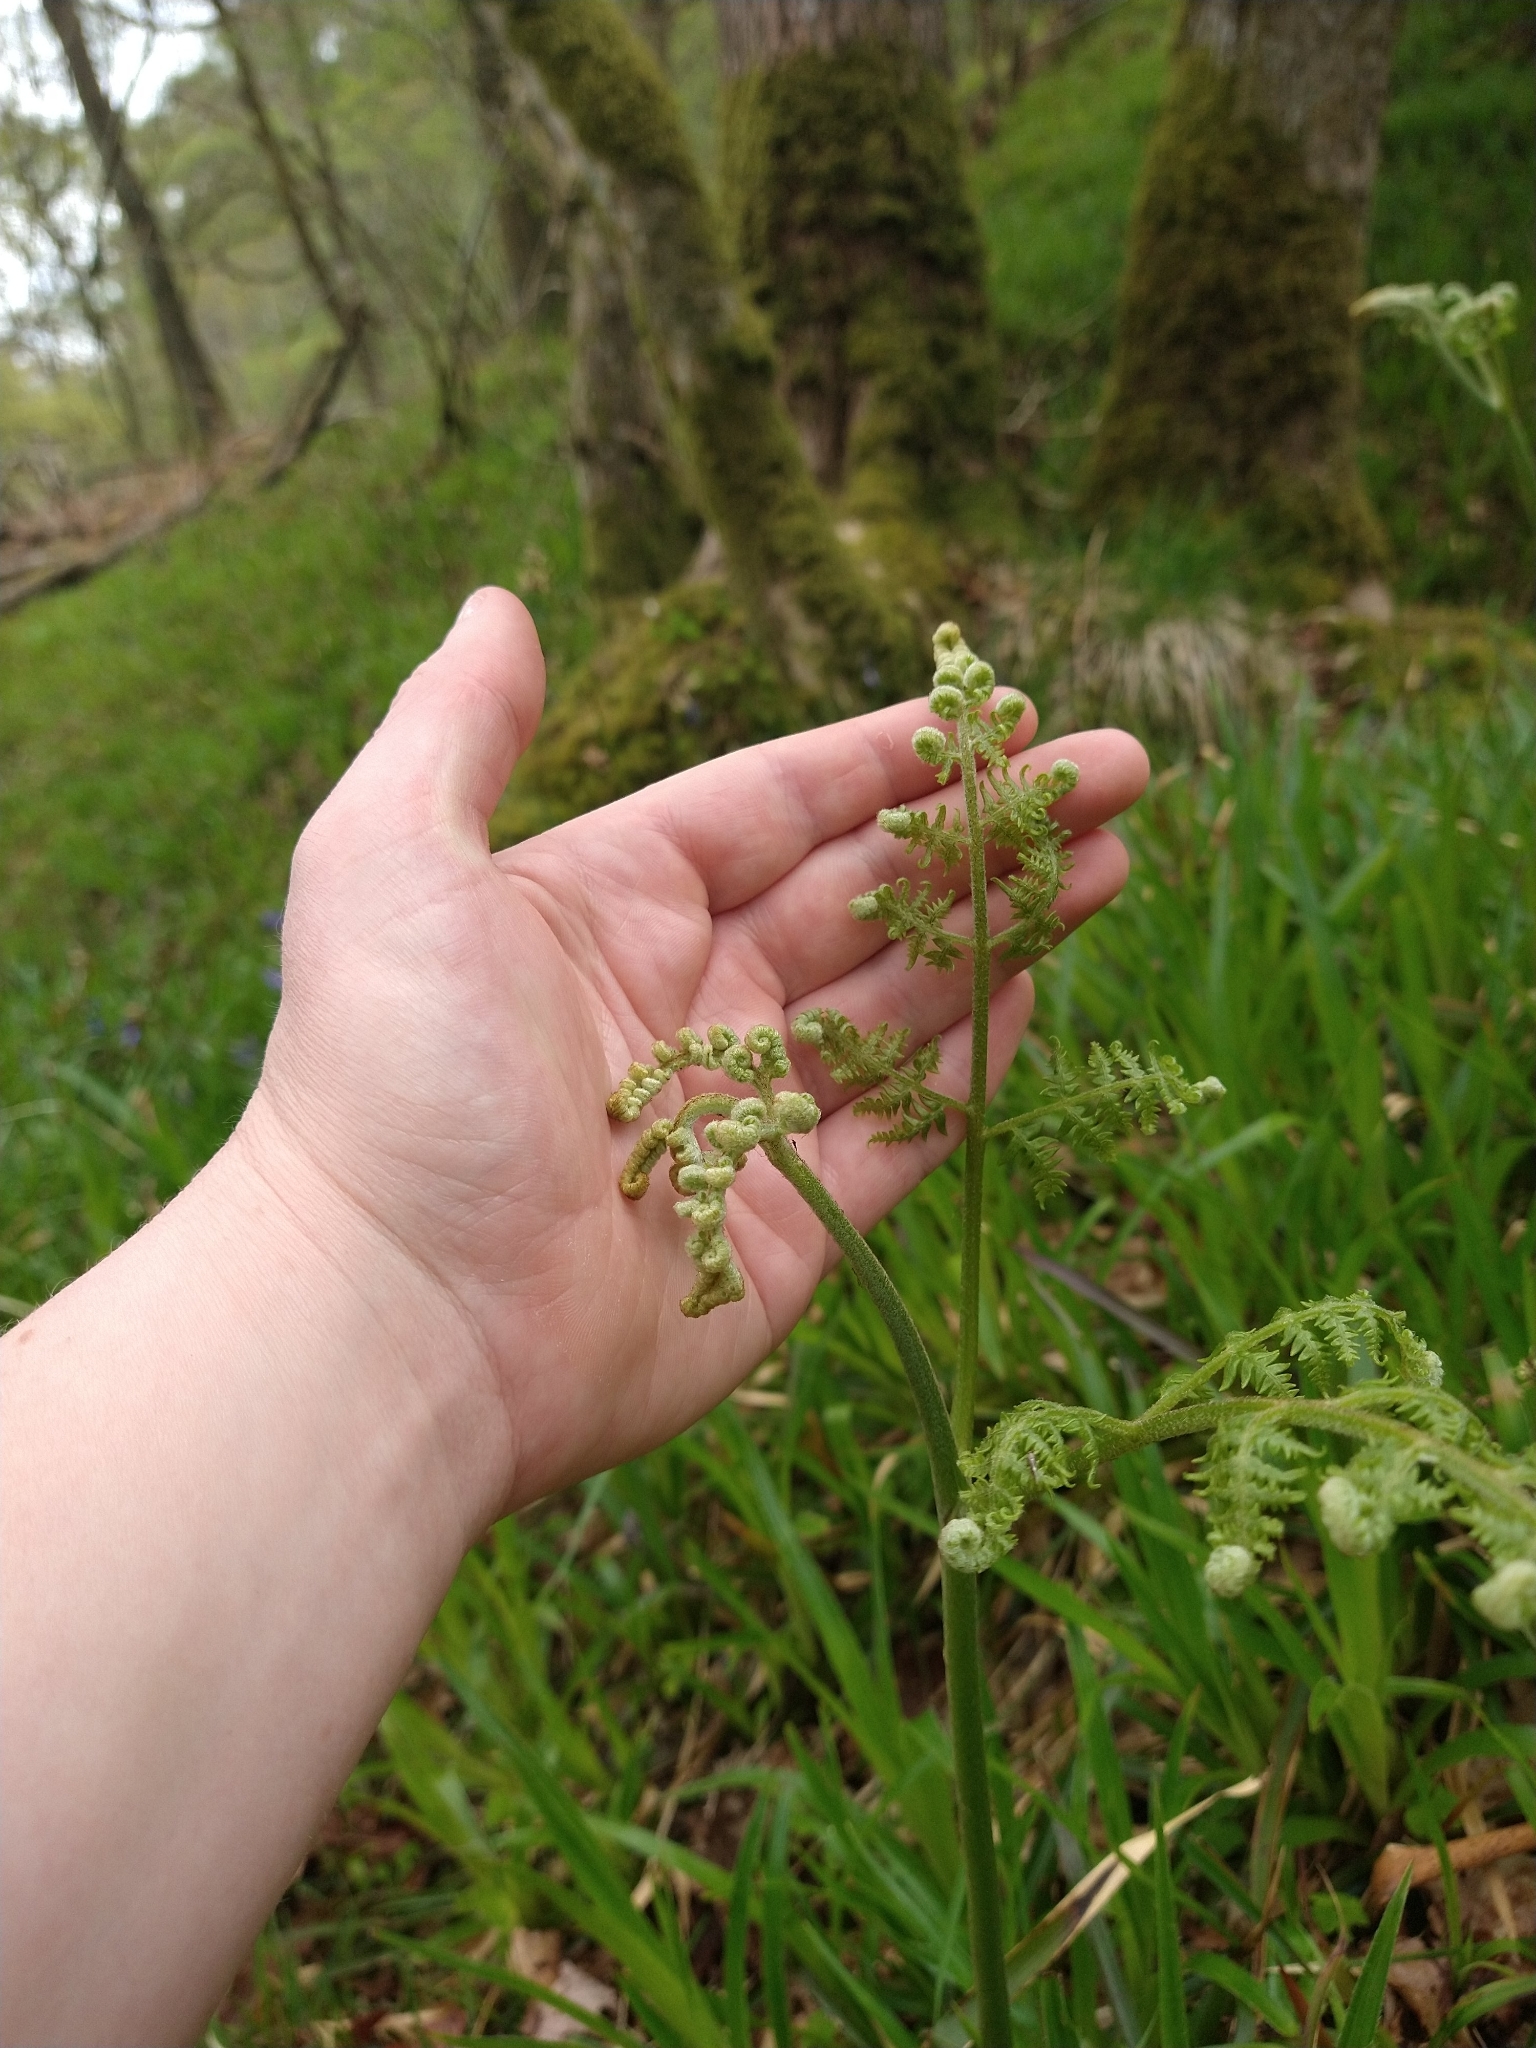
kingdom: Plantae
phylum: Tracheophyta
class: Polypodiopsida
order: Polypodiales
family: Dennstaedtiaceae
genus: Pteridium
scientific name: Pteridium aquilinum
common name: Bracken
